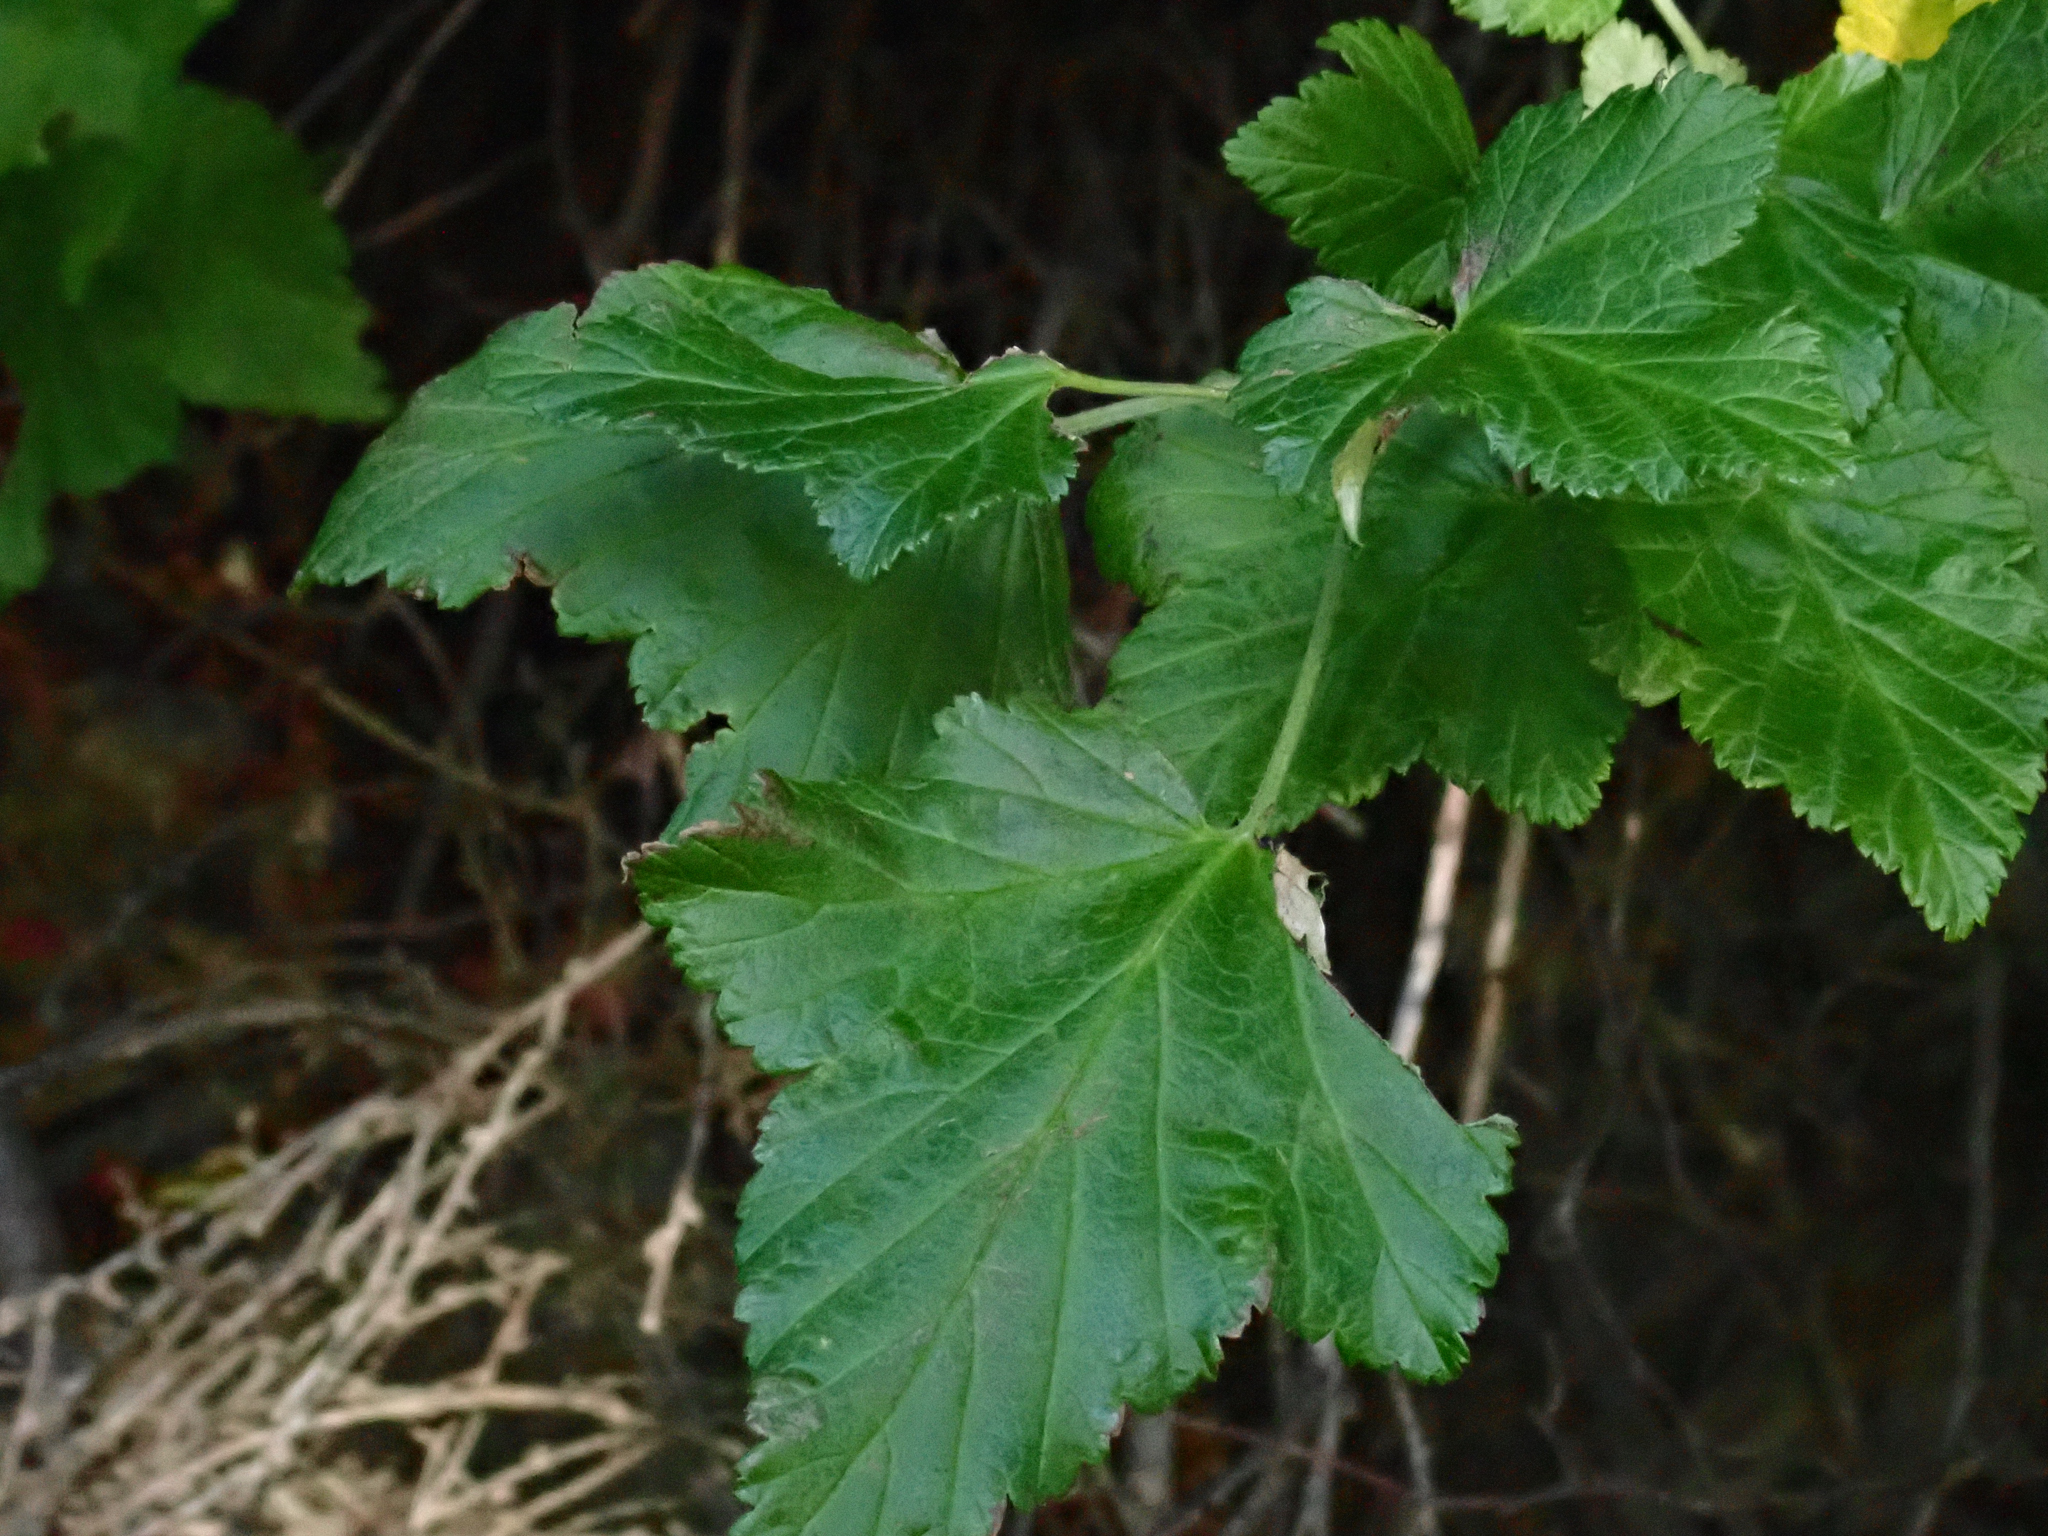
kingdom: Plantae
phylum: Tracheophyta
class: Magnoliopsida
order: Saxifragales
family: Grossulariaceae
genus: Ribes
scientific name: Ribes magellanicum
